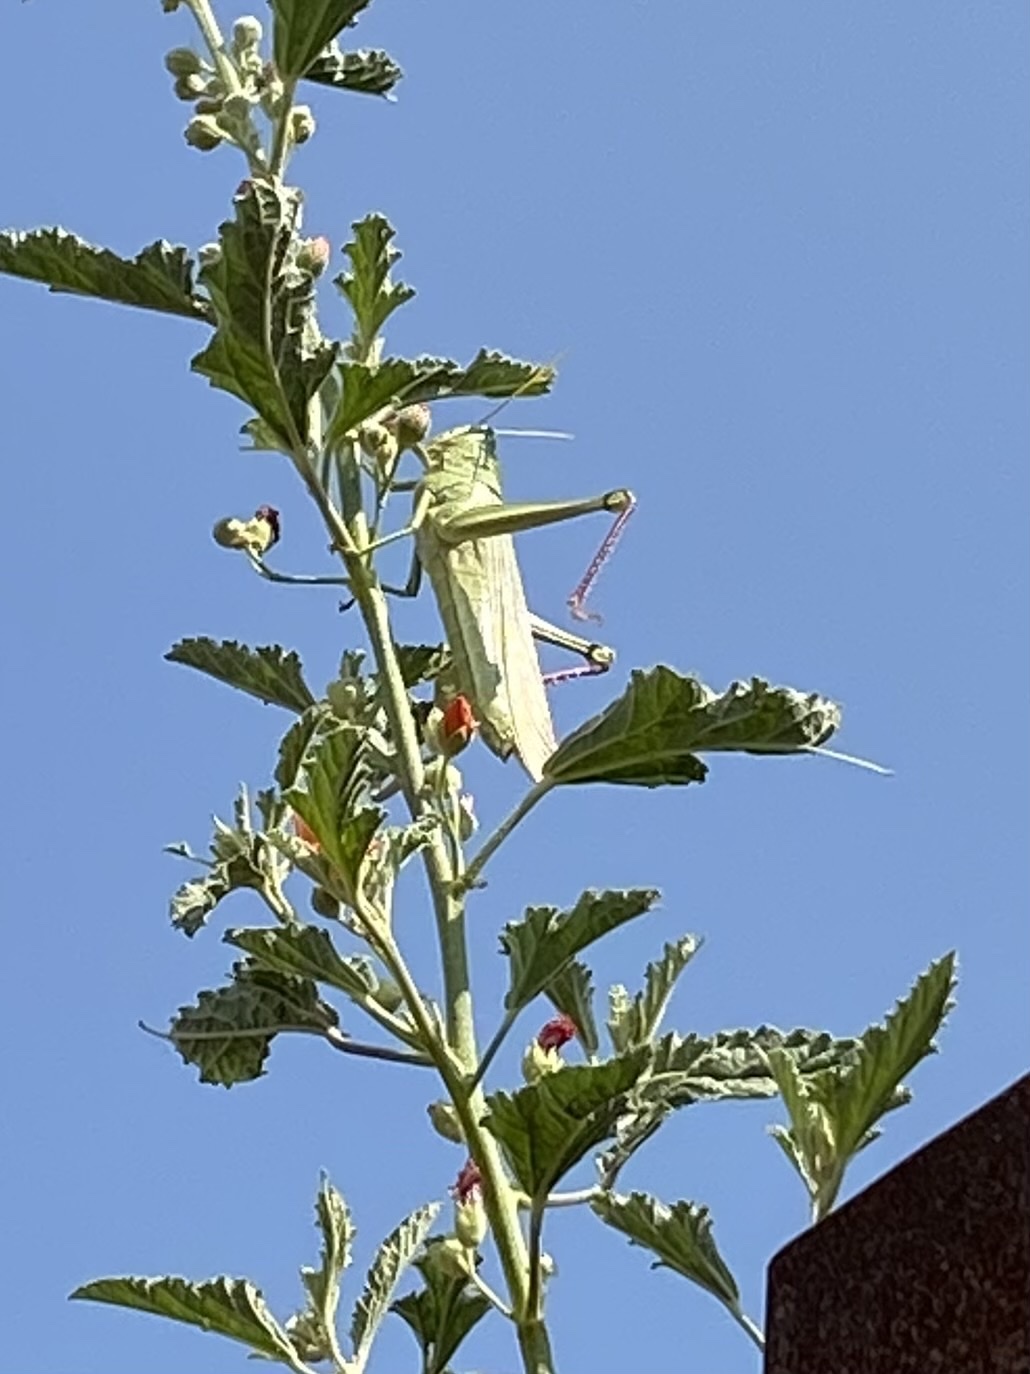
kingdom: Animalia
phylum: Arthropoda
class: Insecta
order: Orthoptera
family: Acrididae
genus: Schistocerca
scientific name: Schistocerca shoshone
